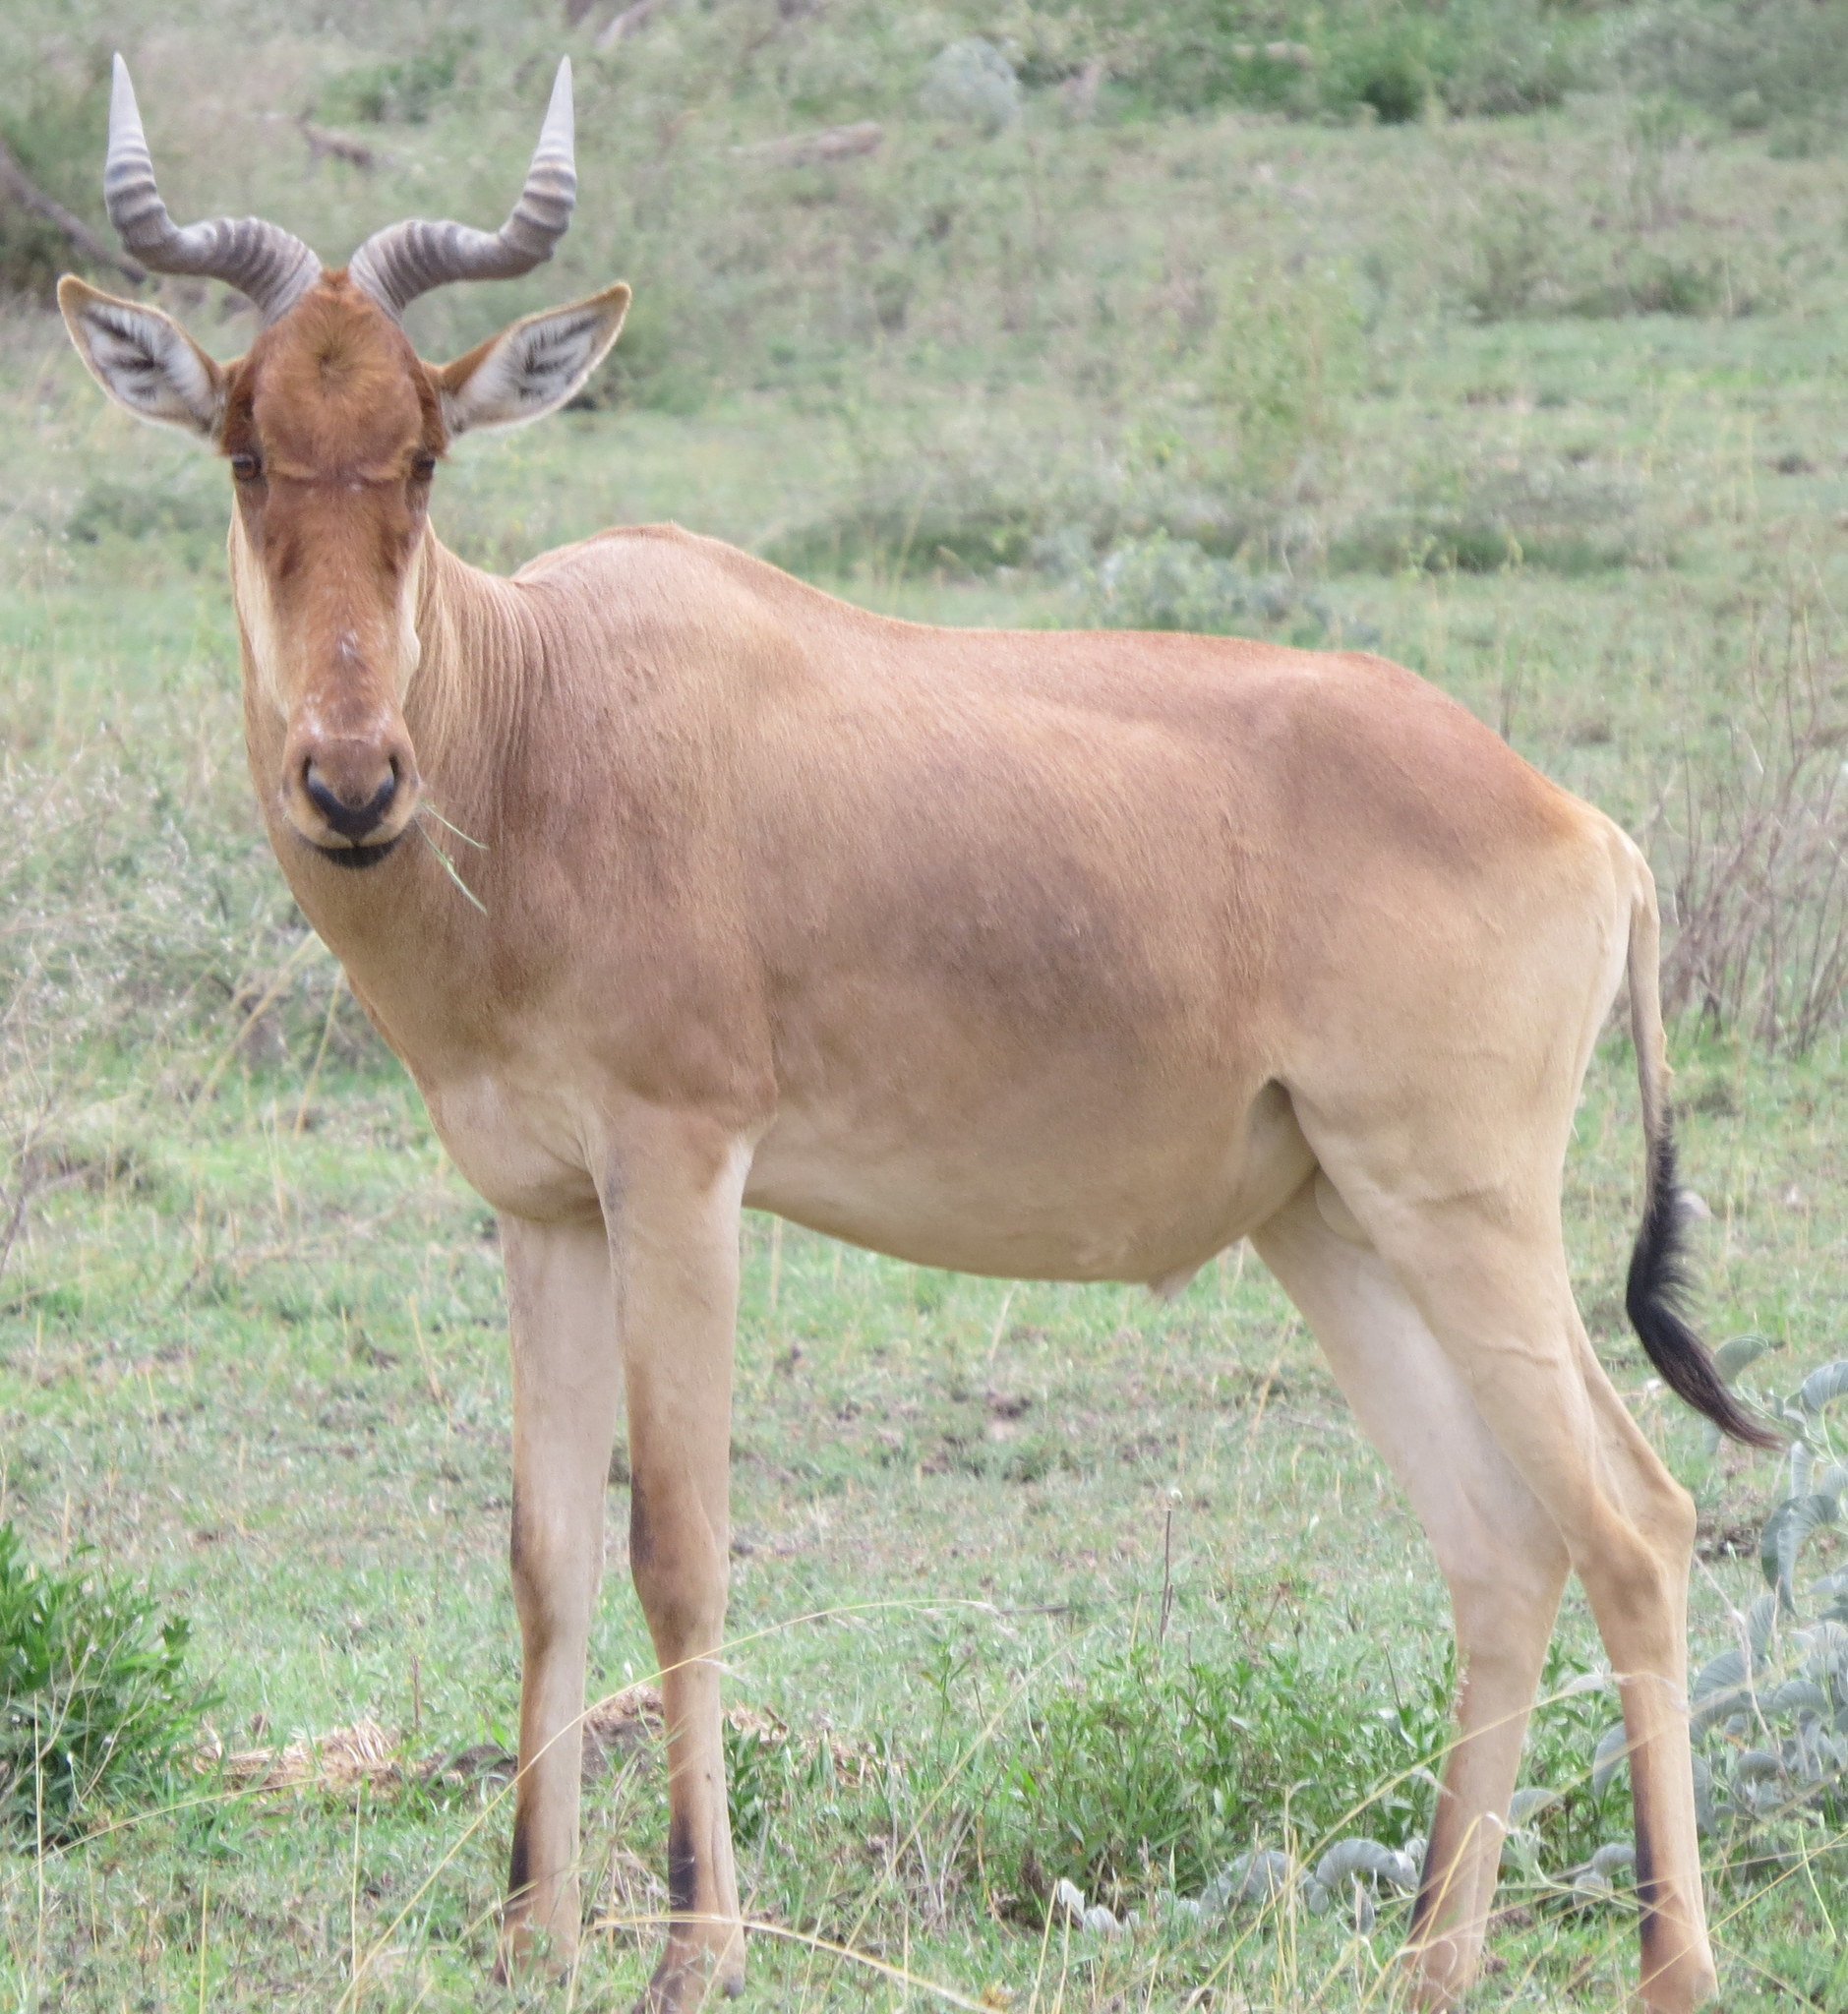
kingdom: Animalia
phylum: Chordata
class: Mammalia
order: Artiodactyla
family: Bovidae
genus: Alcelaphus
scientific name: Alcelaphus buselaphus
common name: Hartebeest
